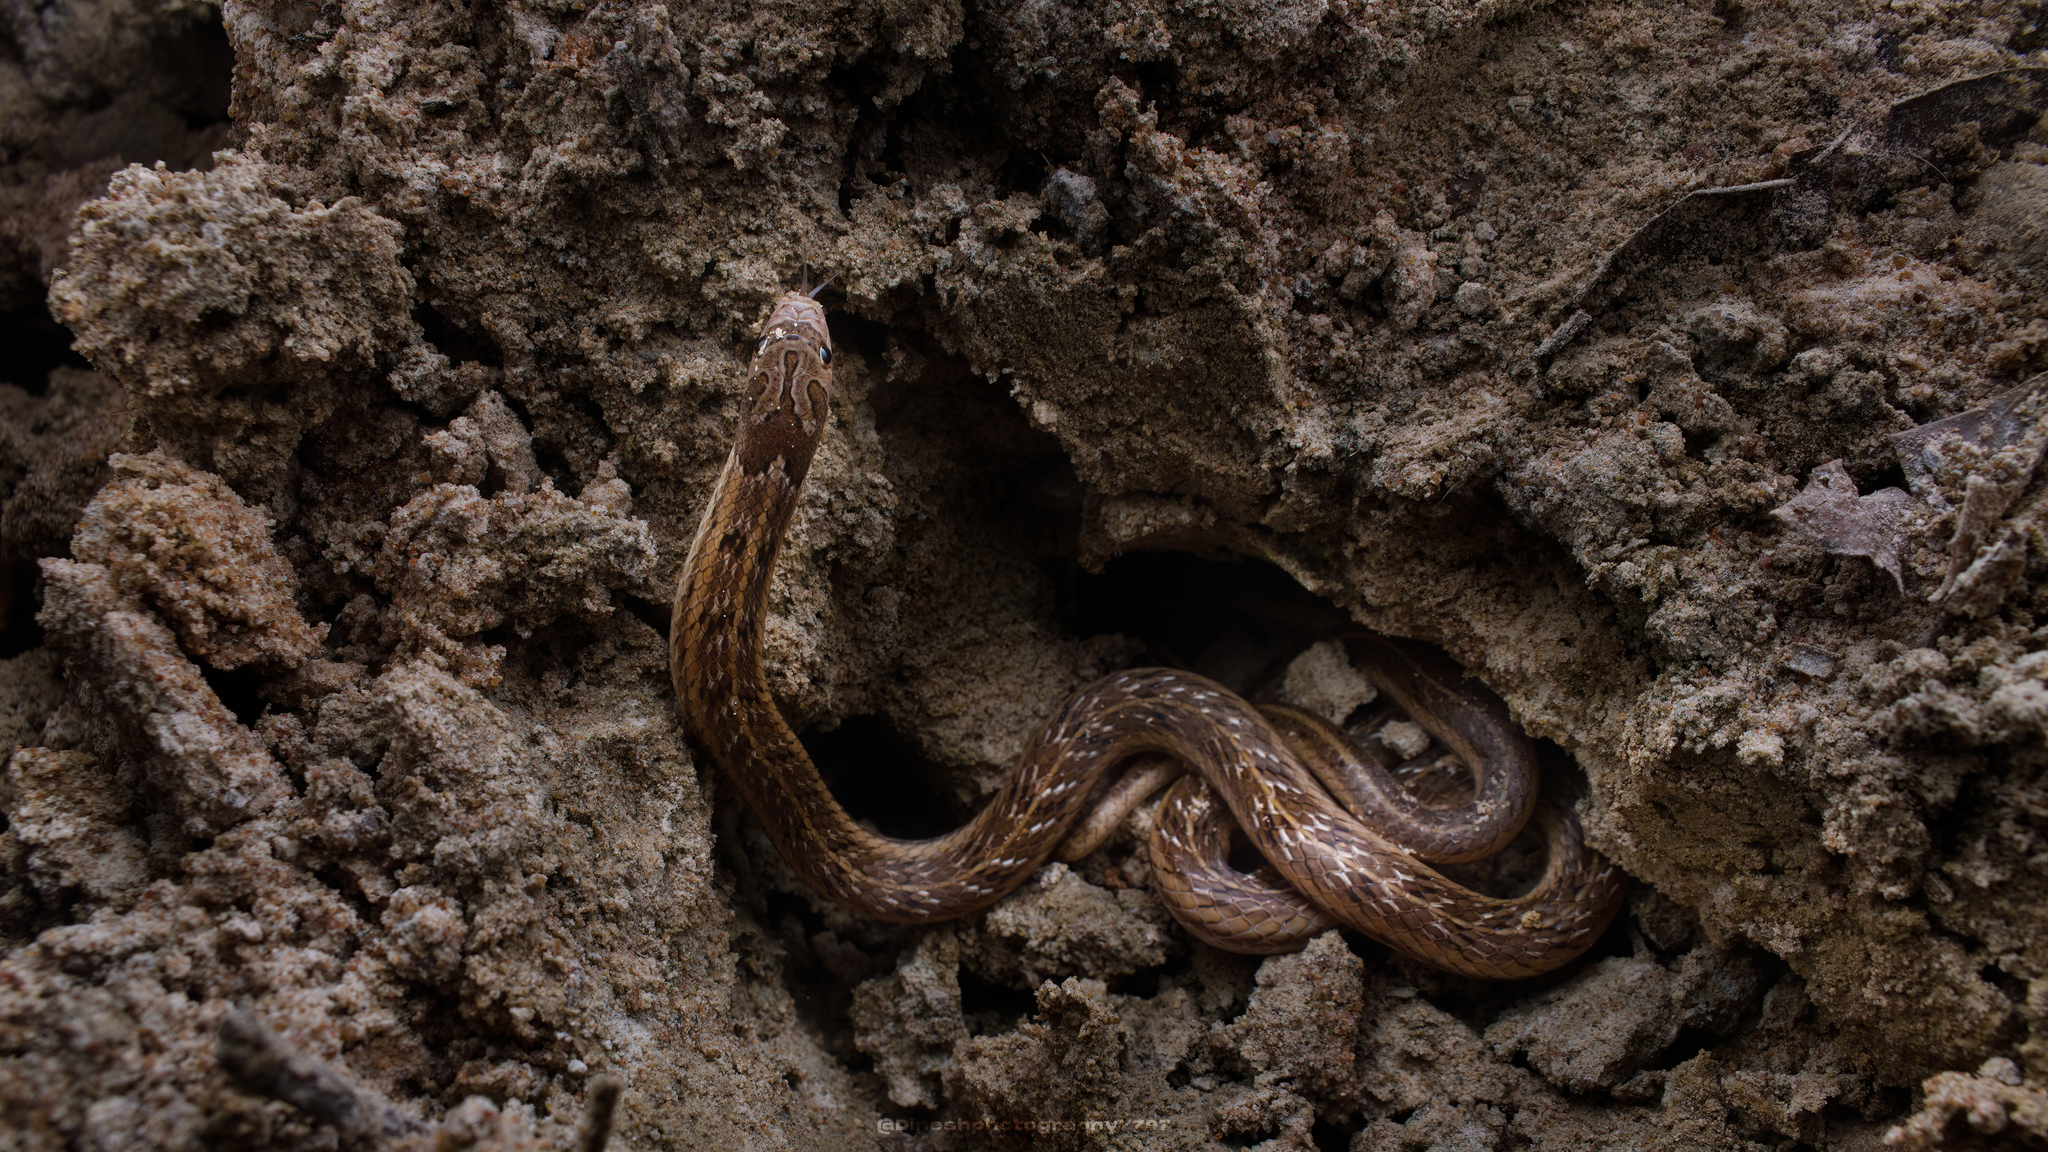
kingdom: Animalia
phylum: Chordata
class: Squamata
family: Colubridae
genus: Oligodon
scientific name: Oligodon taeniolatus
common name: Loos snake
